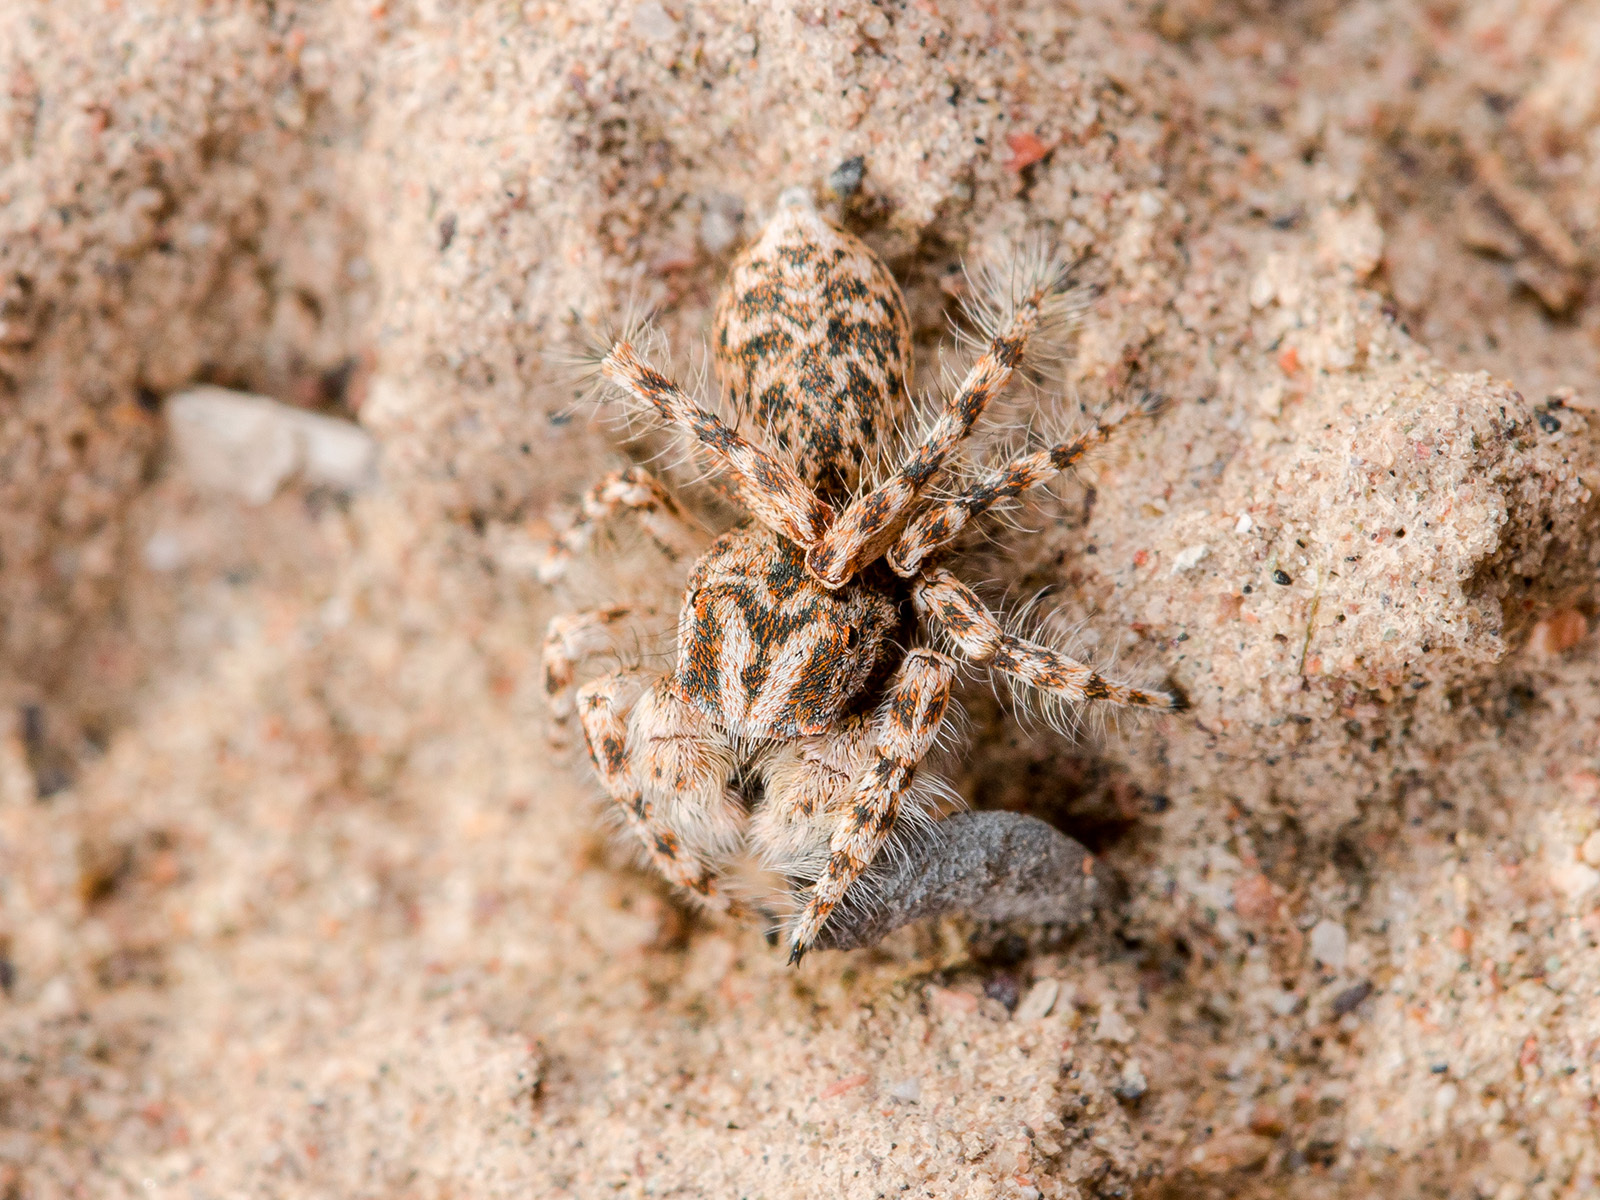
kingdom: Animalia
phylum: Arthropoda
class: Arachnida
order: Araneae
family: Salticidae
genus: Yllenus
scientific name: Yllenus uiguricus
